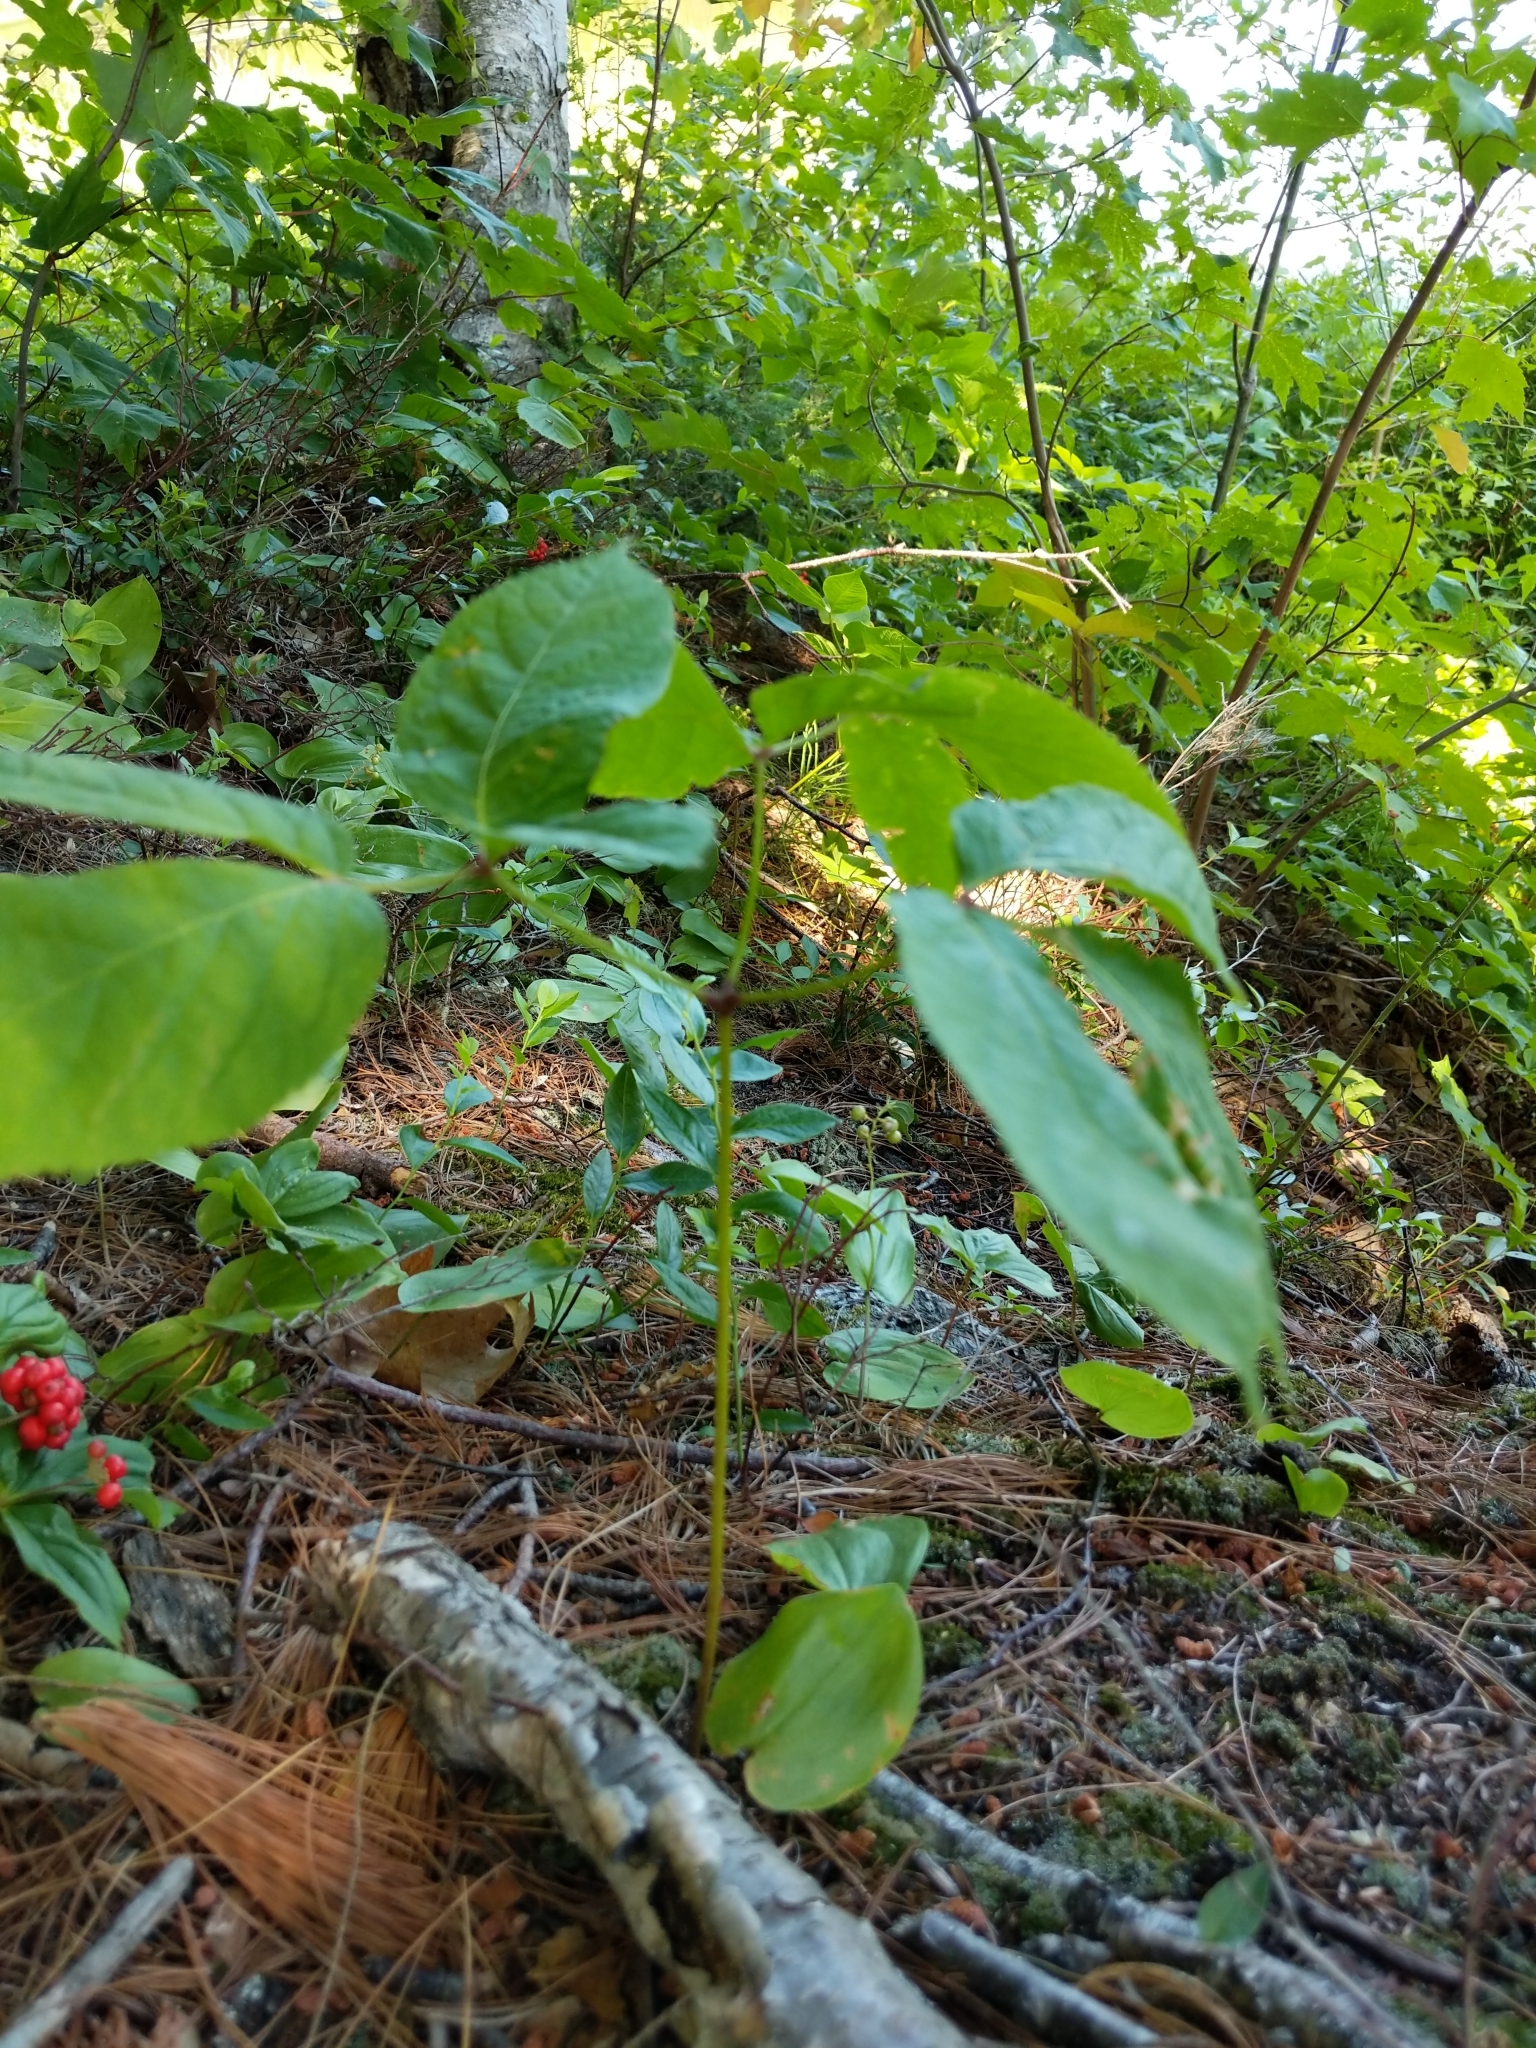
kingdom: Plantae
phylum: Tracheophyta
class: Magnoliopsida
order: Apiales
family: Araliaceae
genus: Aralia
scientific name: Aralia nudicaulis
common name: Wild sarsaparilla
